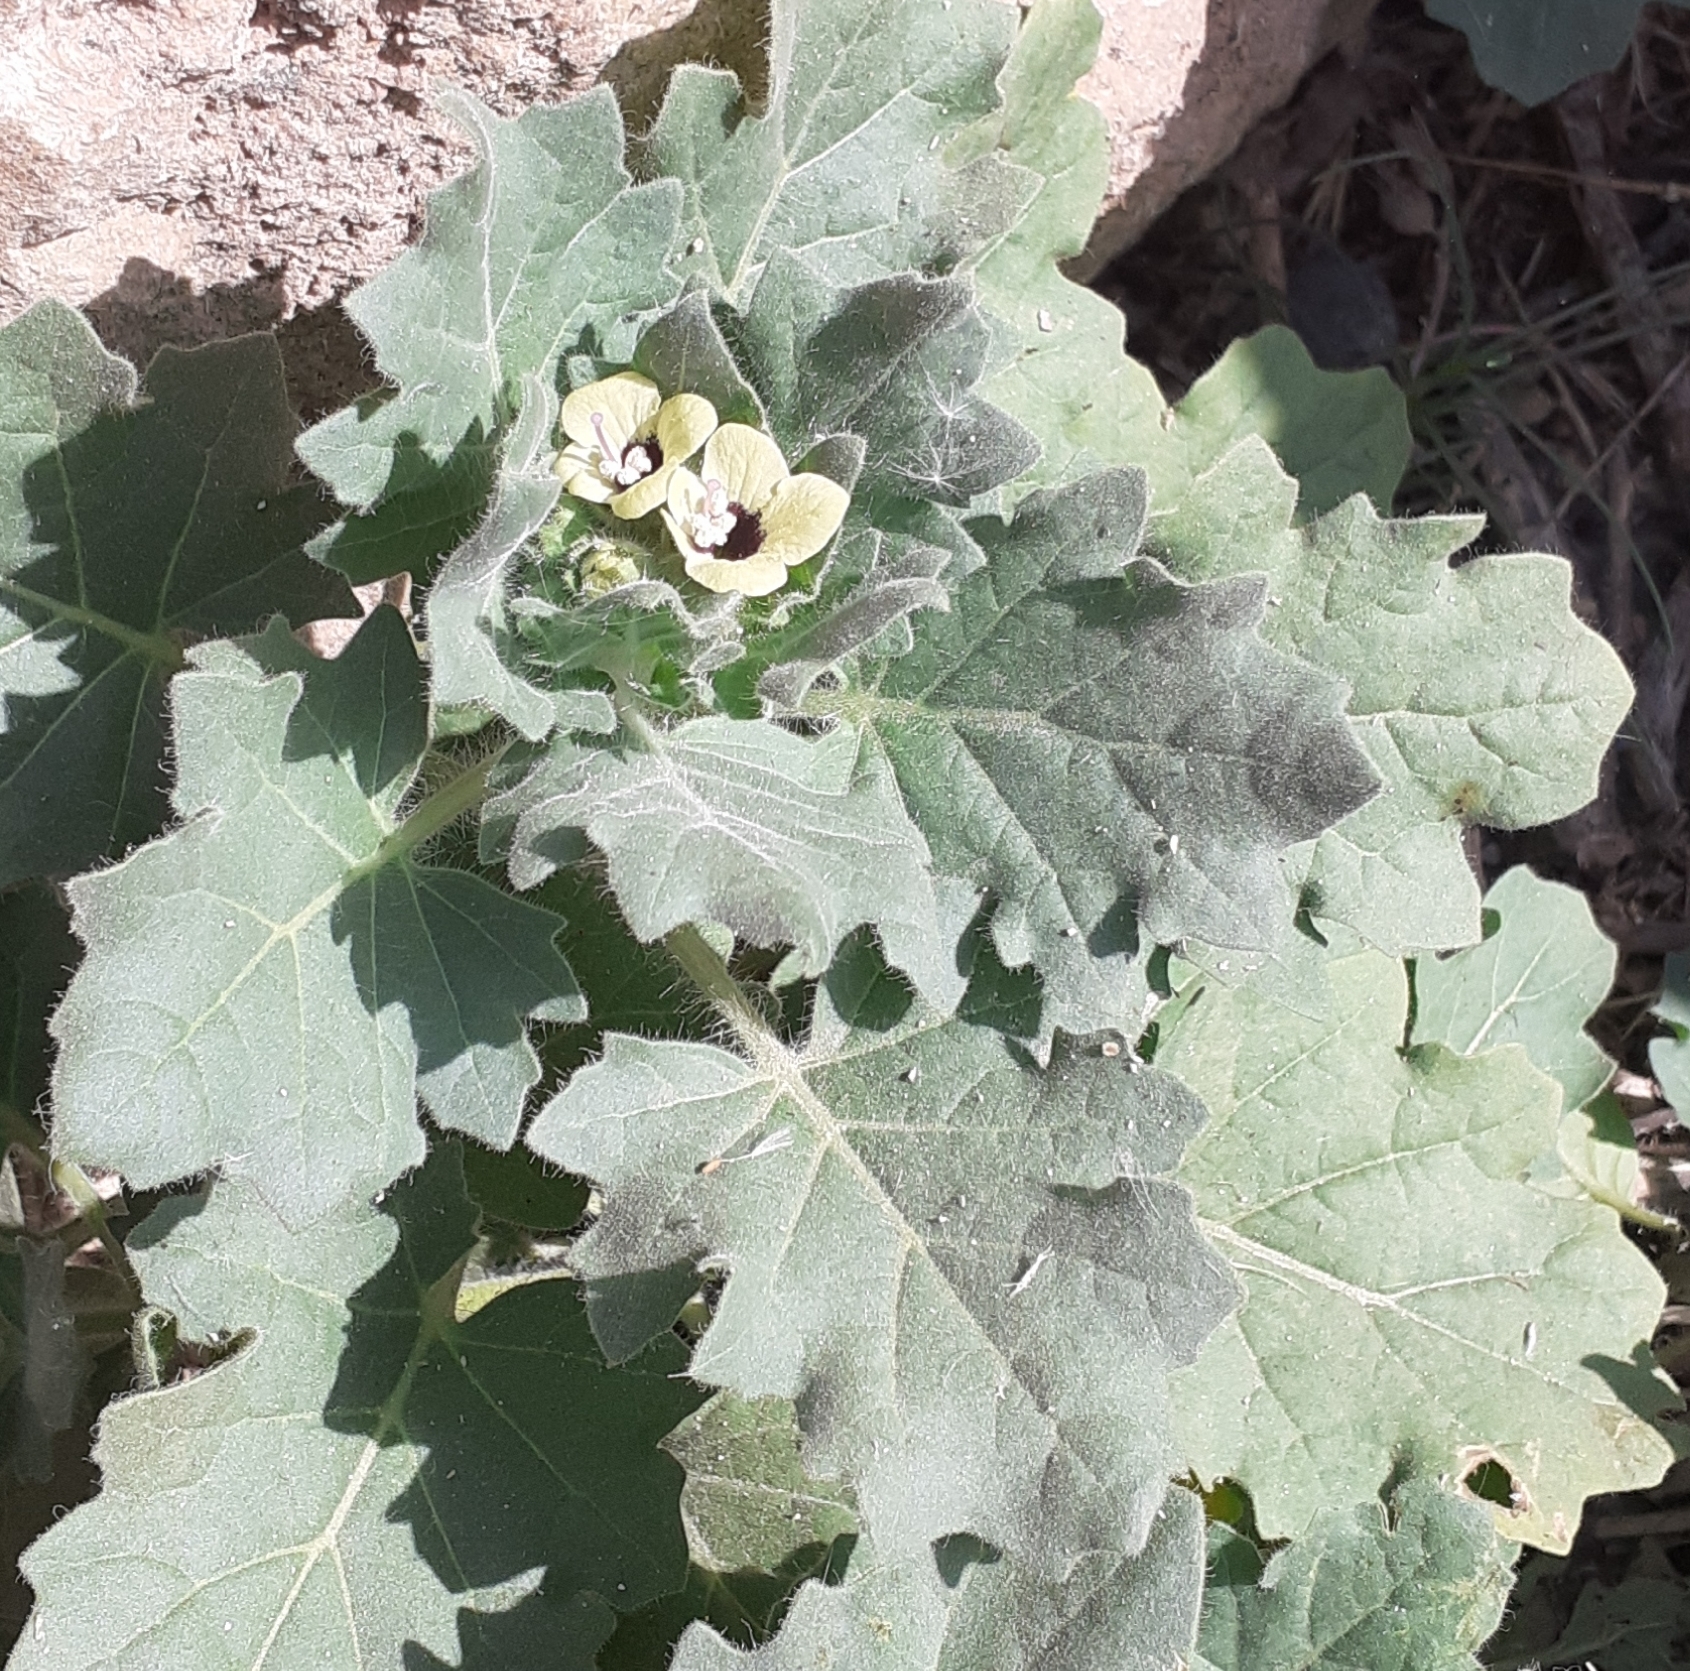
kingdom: Plantae
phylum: Tracheophyta
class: Magnoliopsida
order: Solanales
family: Solanaceae
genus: Hyoscyamus
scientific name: Hyoscyamus albus
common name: White henbane
